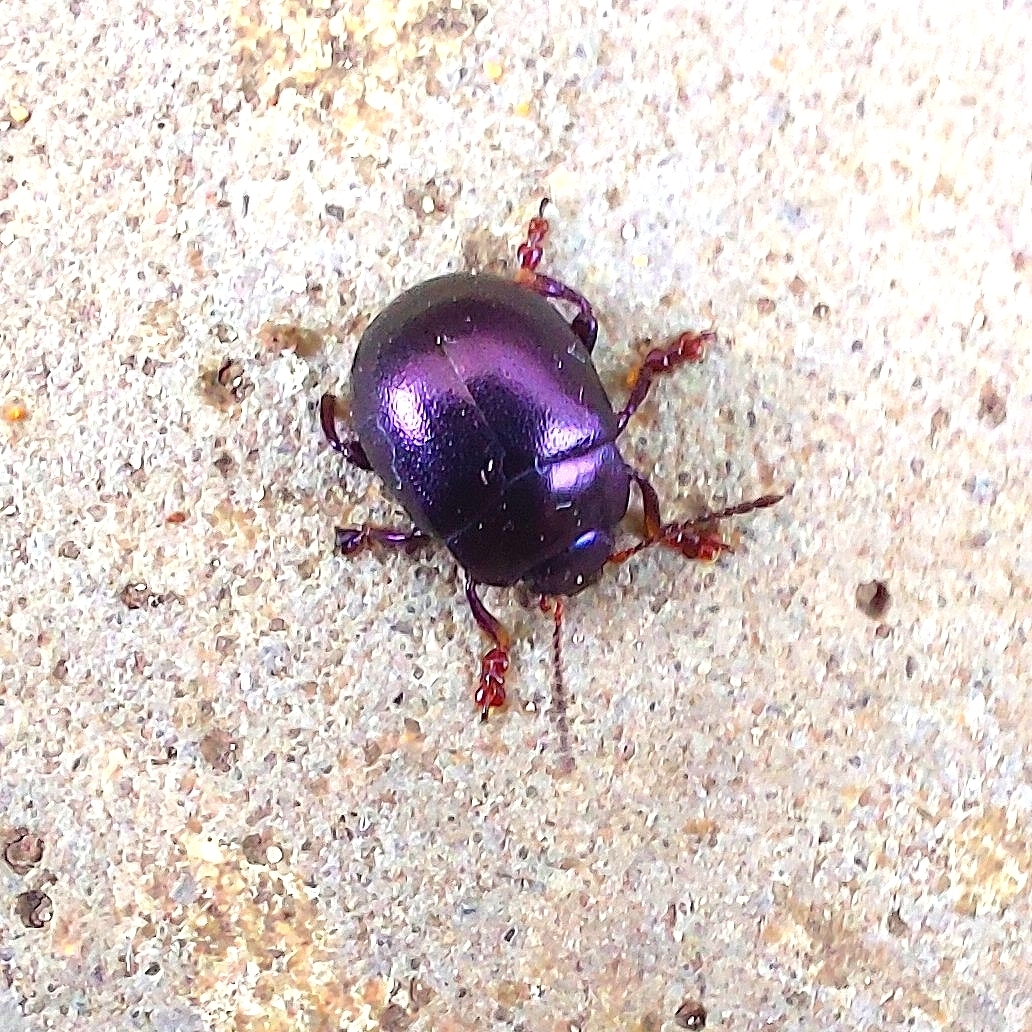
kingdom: Animalia
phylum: Arthropoda
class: Insecta
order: Coleoptera
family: Chrysomelidae
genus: Chrysolina
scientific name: Chrysolina sturmi
